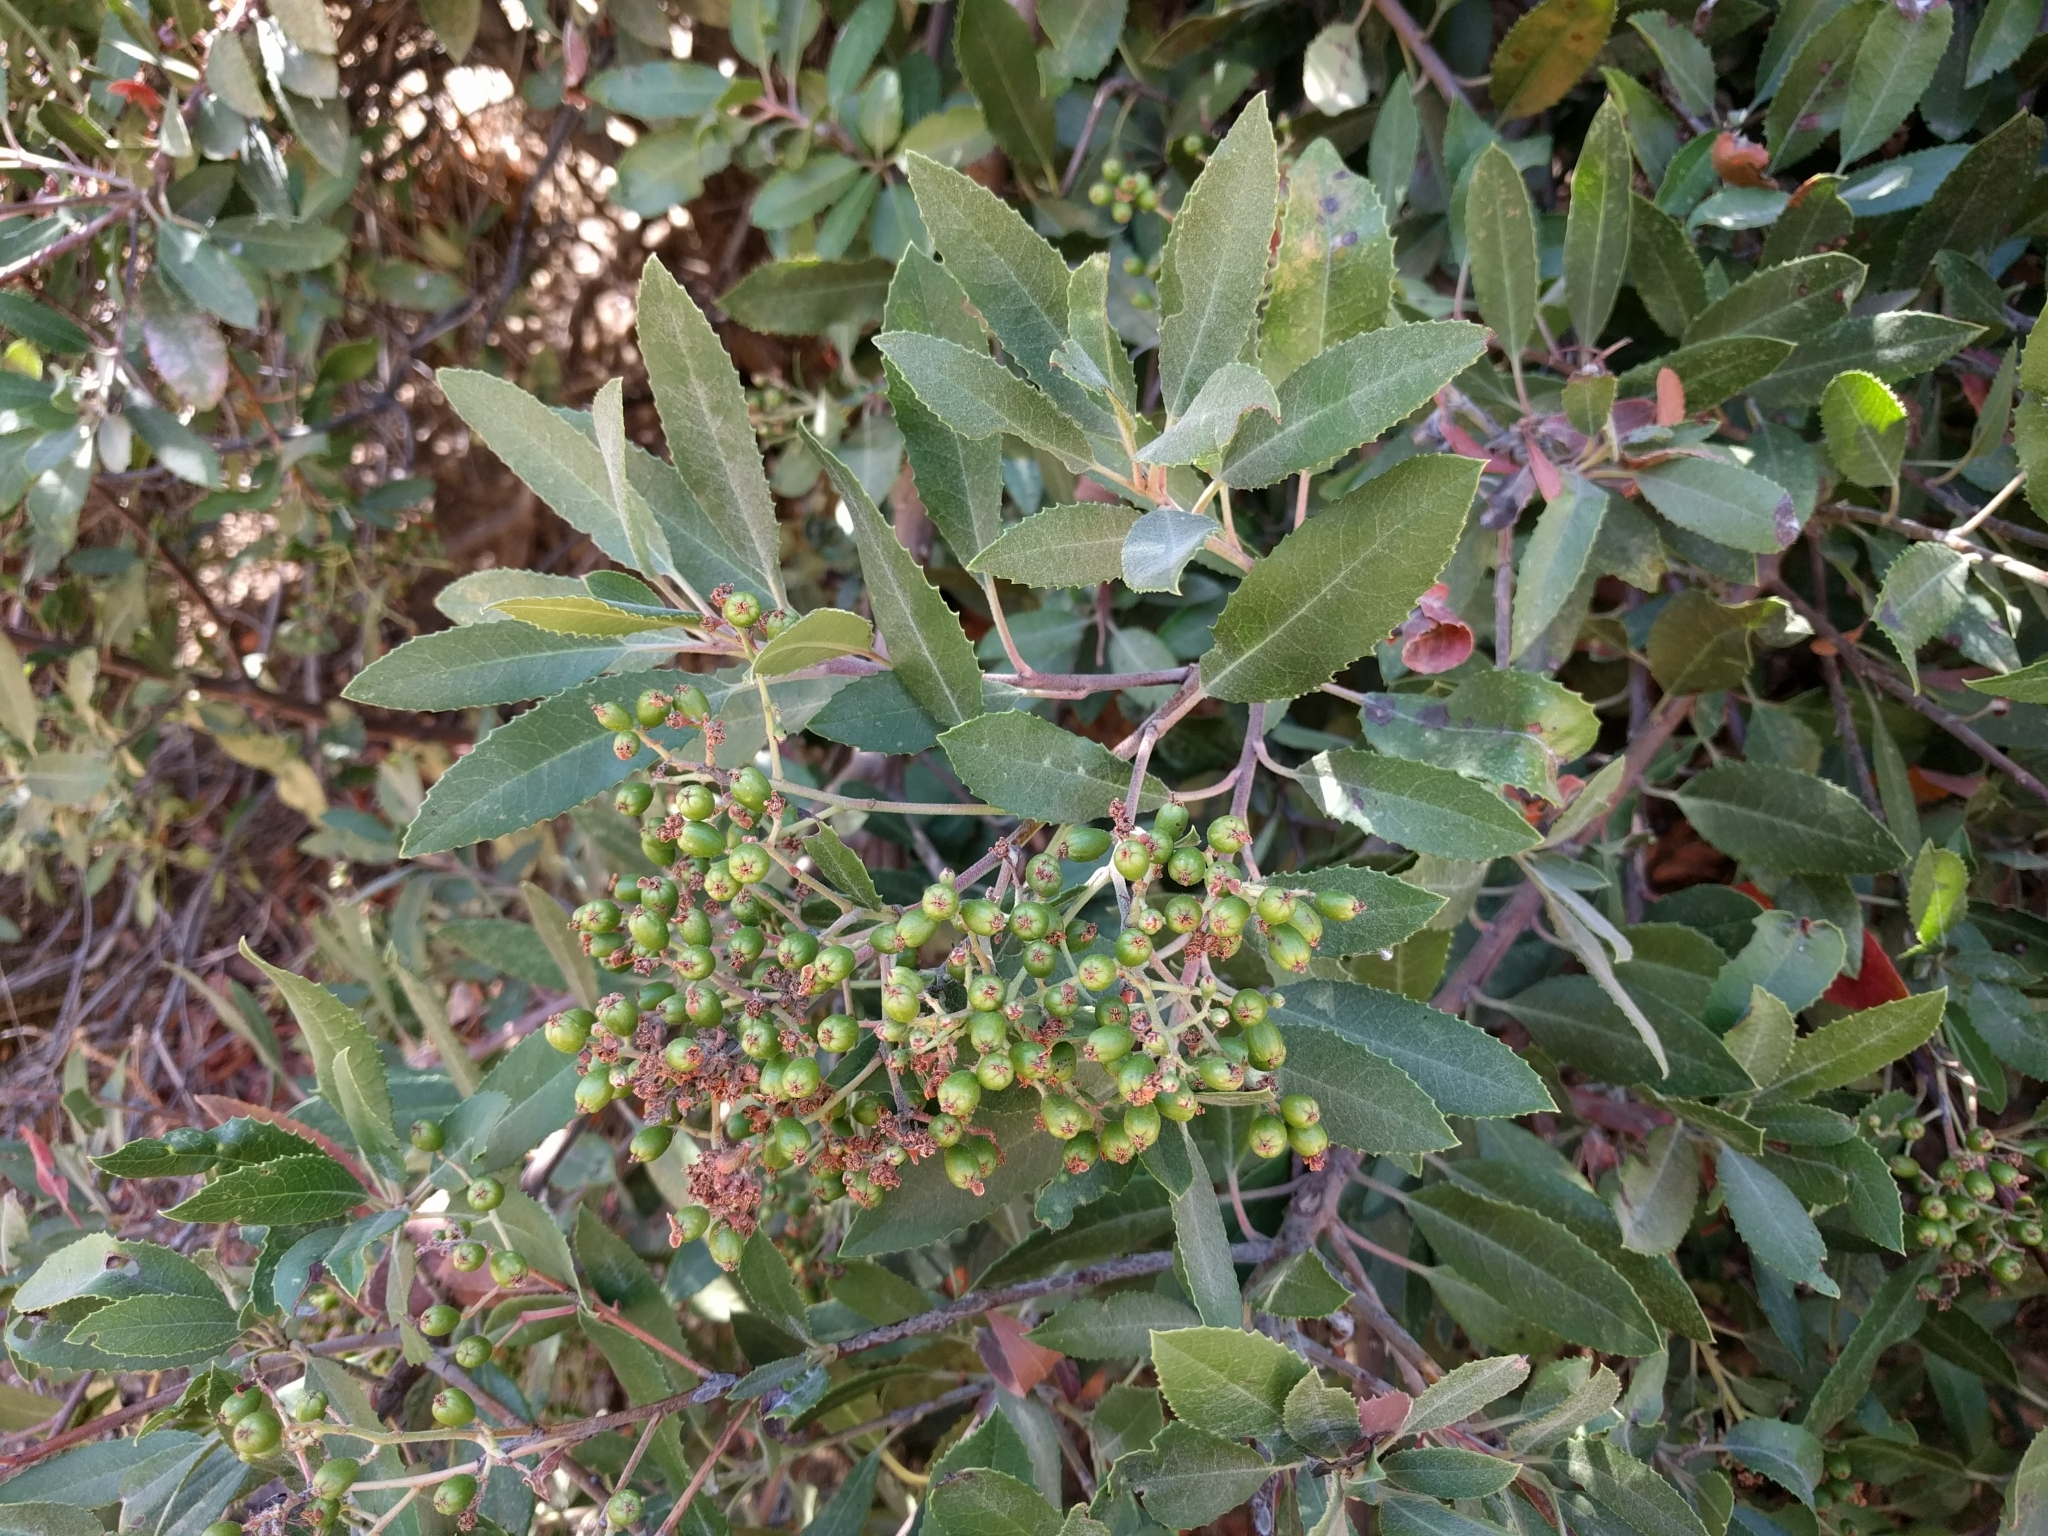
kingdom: Plantae
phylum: Tracheophyta
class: Magnoliopsida
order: Rosales
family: Rosaceae
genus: Heteromeles
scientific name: Heteromeles arbutifolia
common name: California-holly
